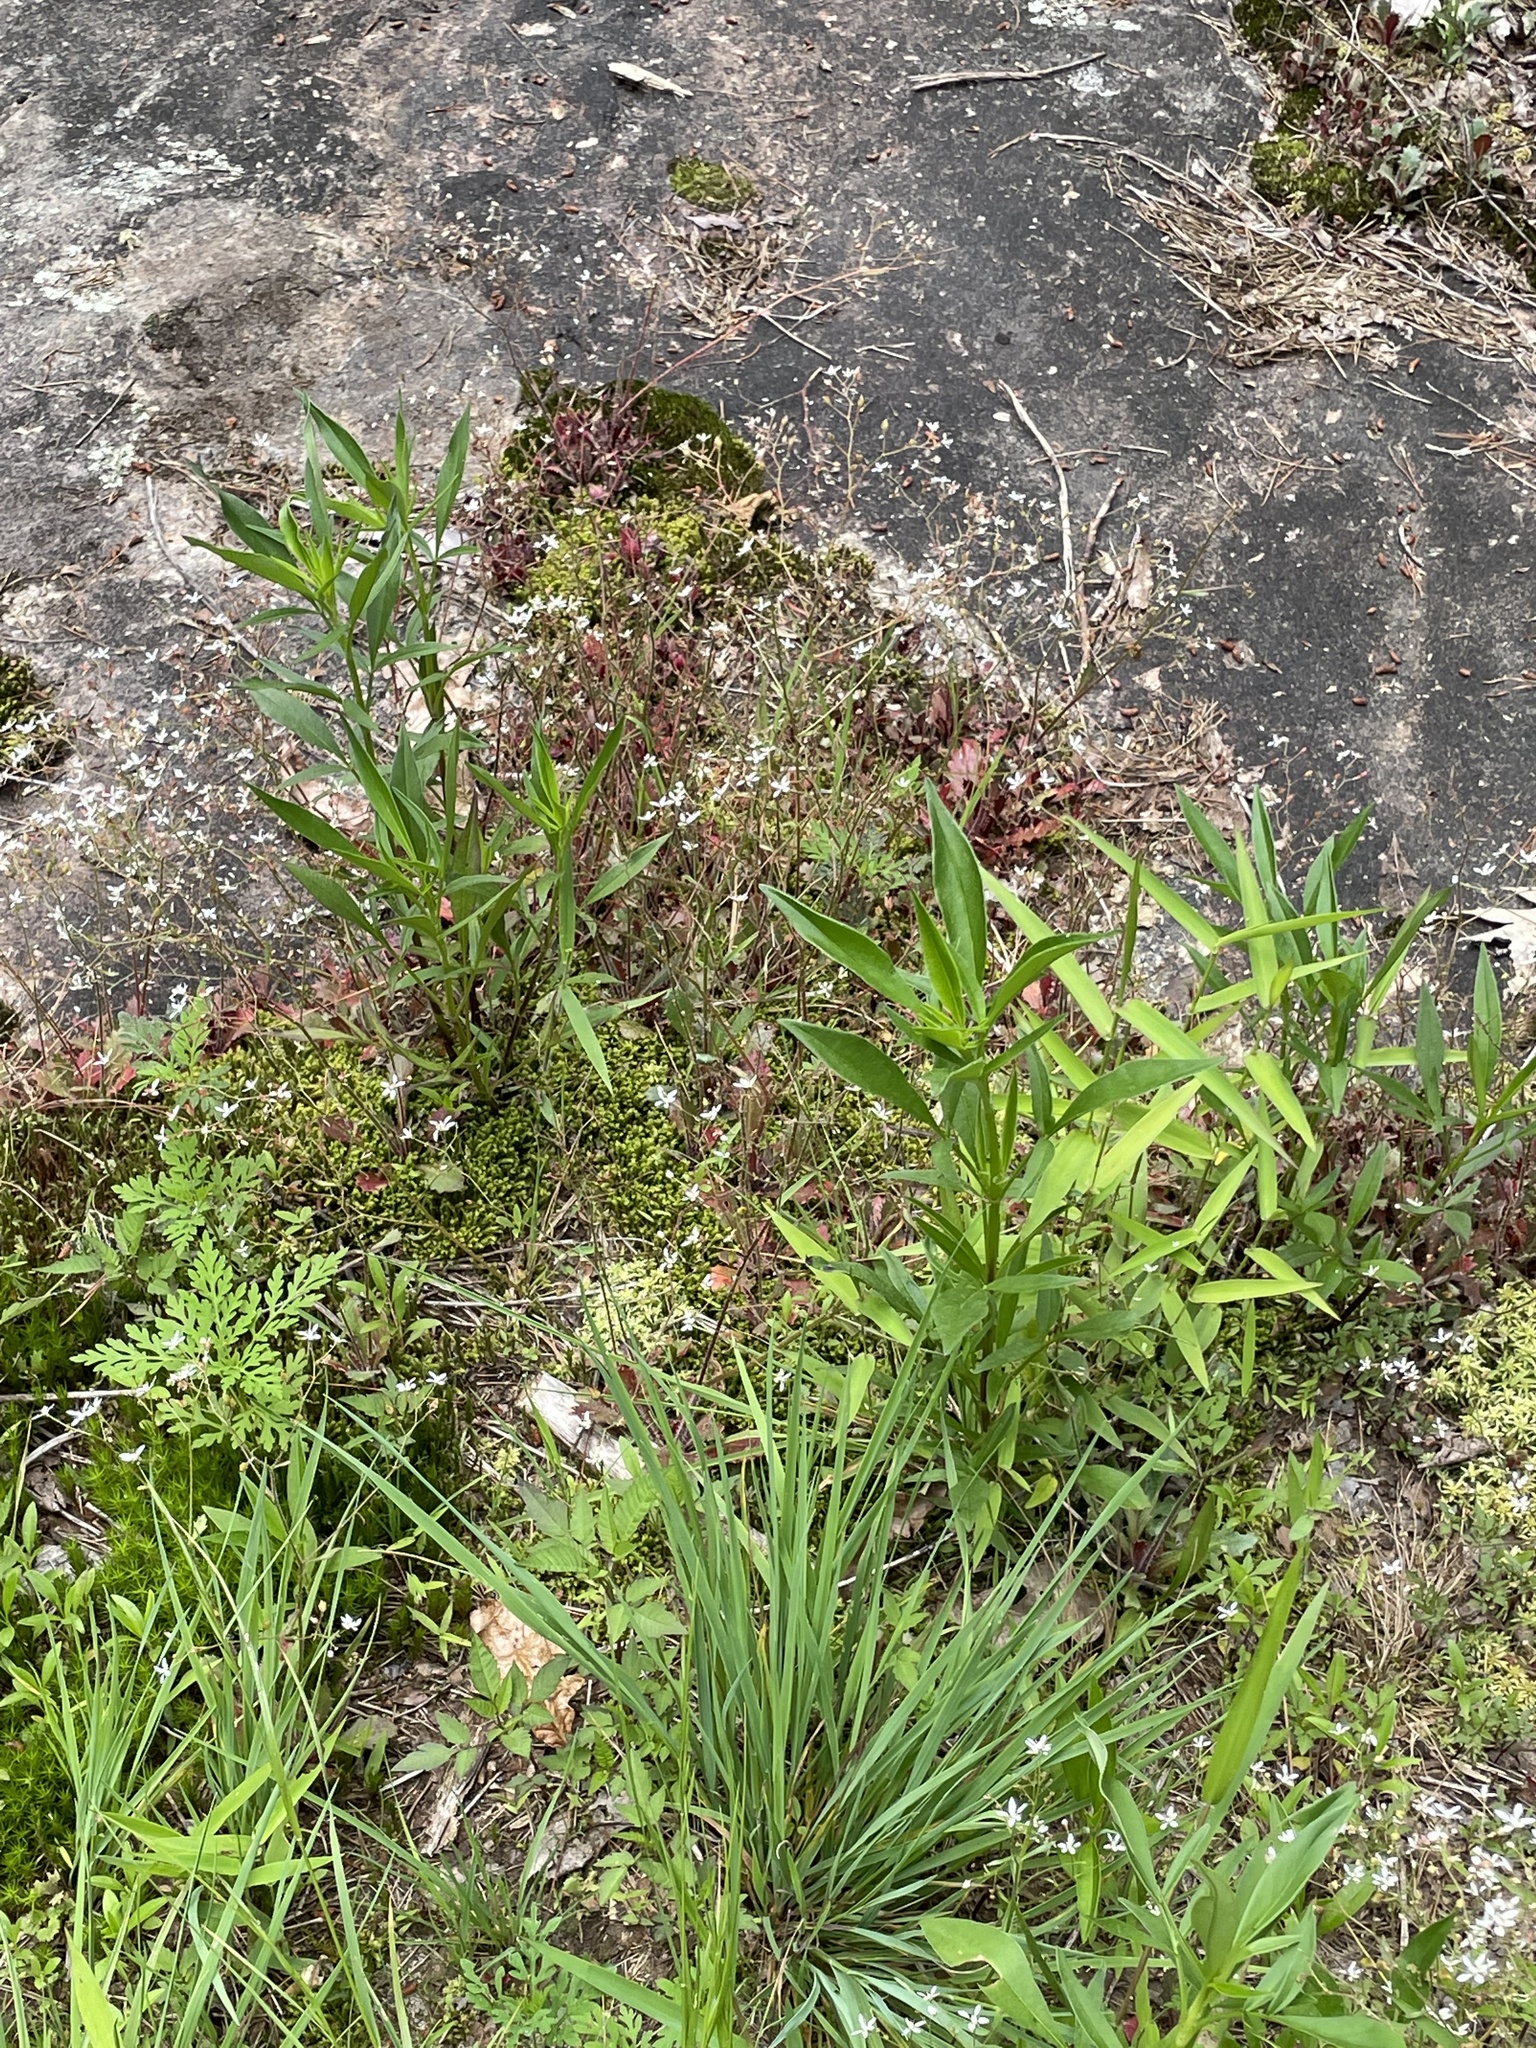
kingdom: Plantae
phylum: Tracheophyta
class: Magnoliopsida
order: Asterales
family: Asteraceae
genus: Coreopsis
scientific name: Coreopsis tripteris
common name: Tall coreopsis
